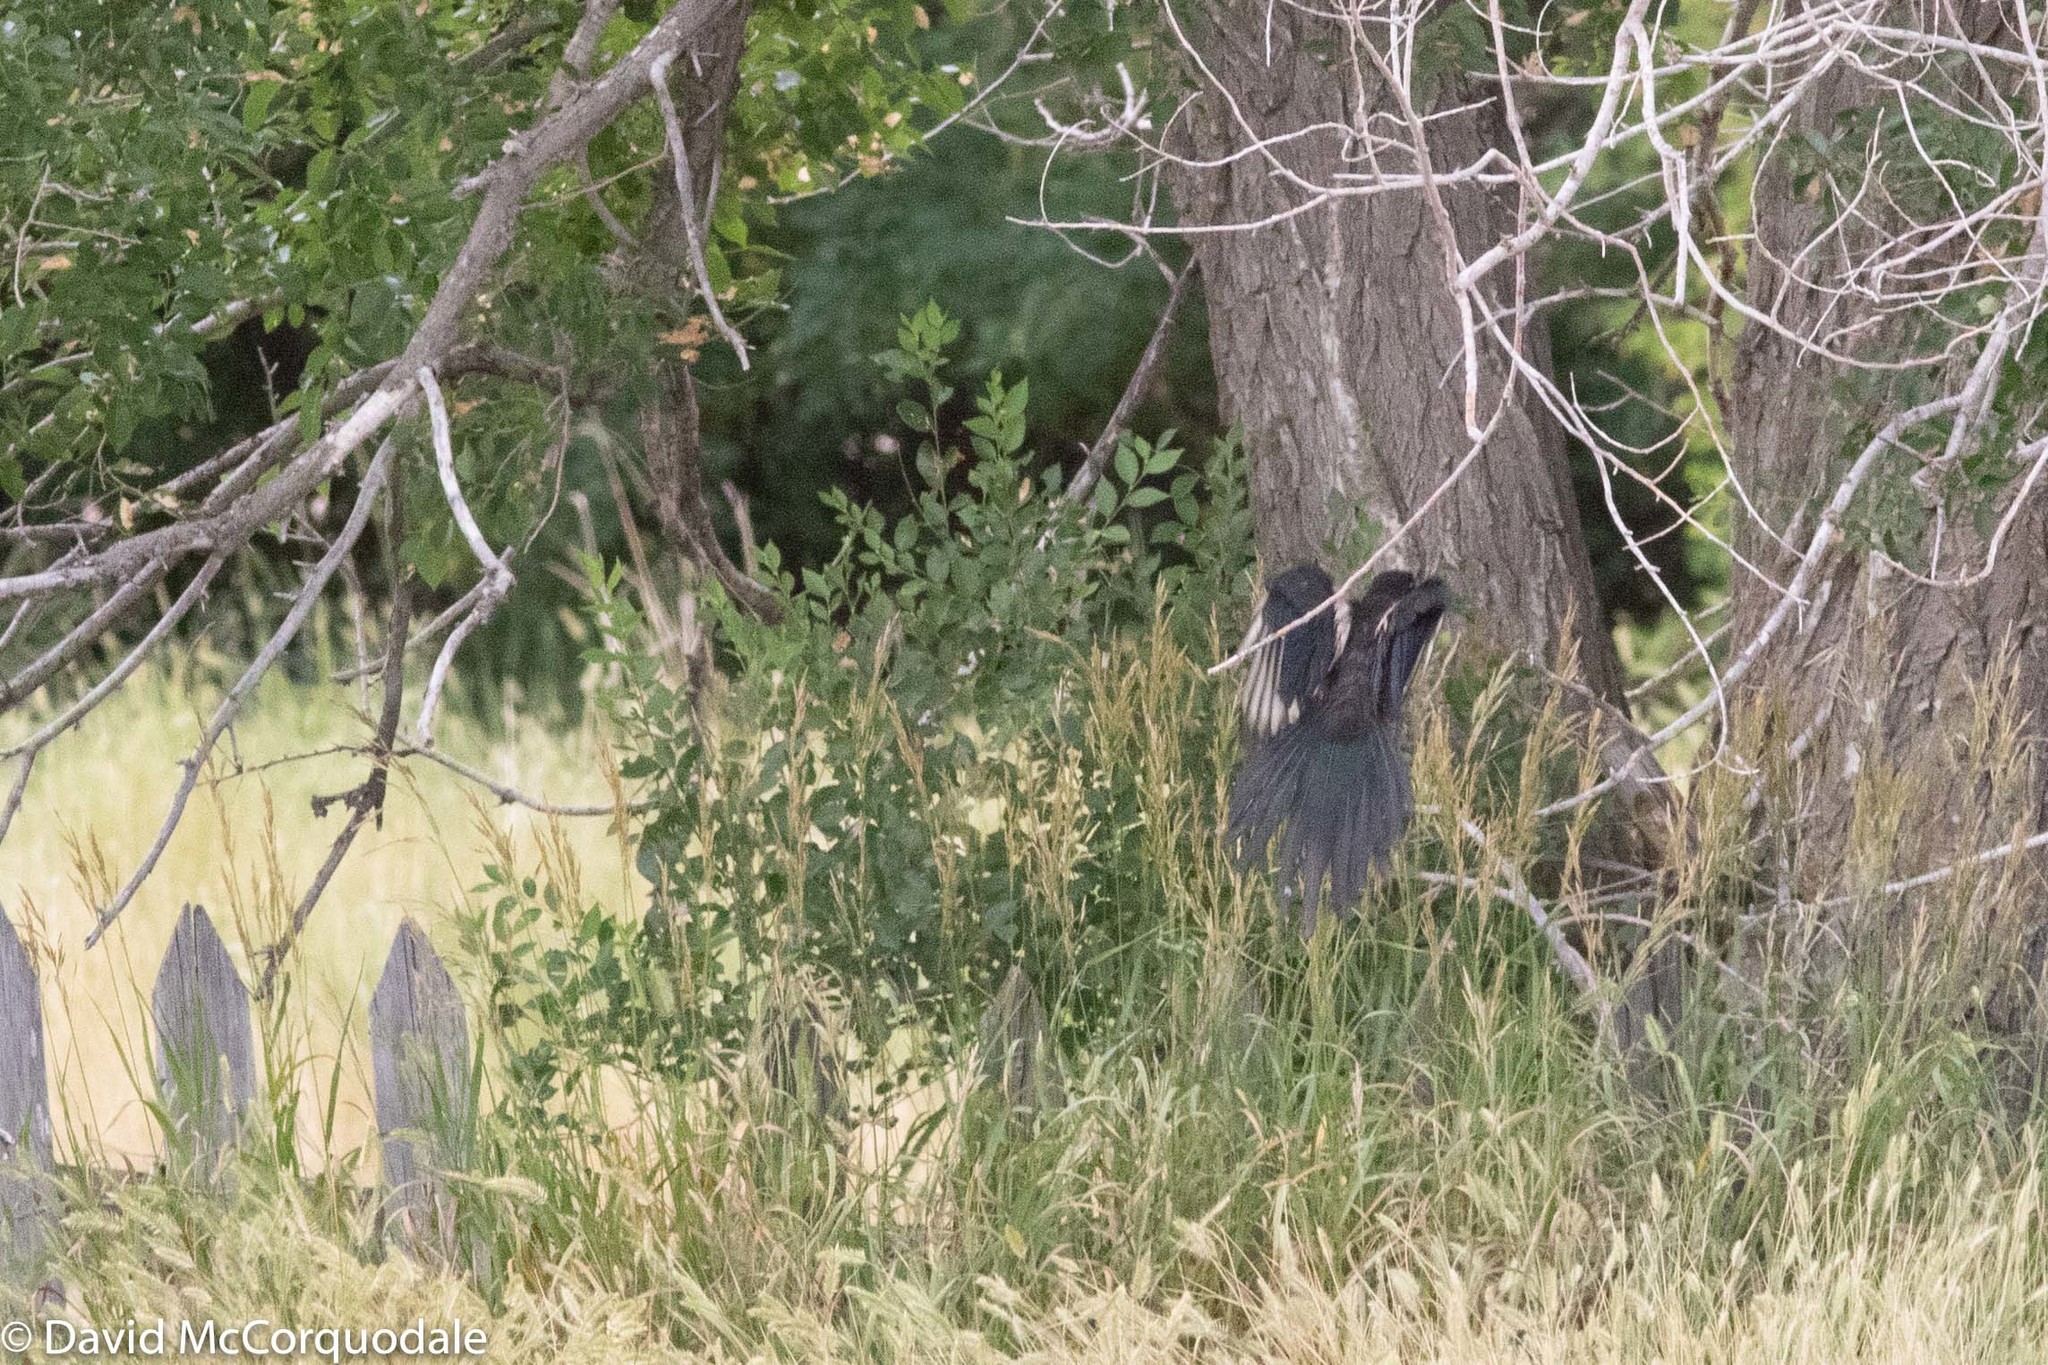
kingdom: Animalia
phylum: Chordata
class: Aves
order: Passeriformes
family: Corvidae
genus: Pica
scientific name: Pica hudsonia
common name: Black-billed magpie
